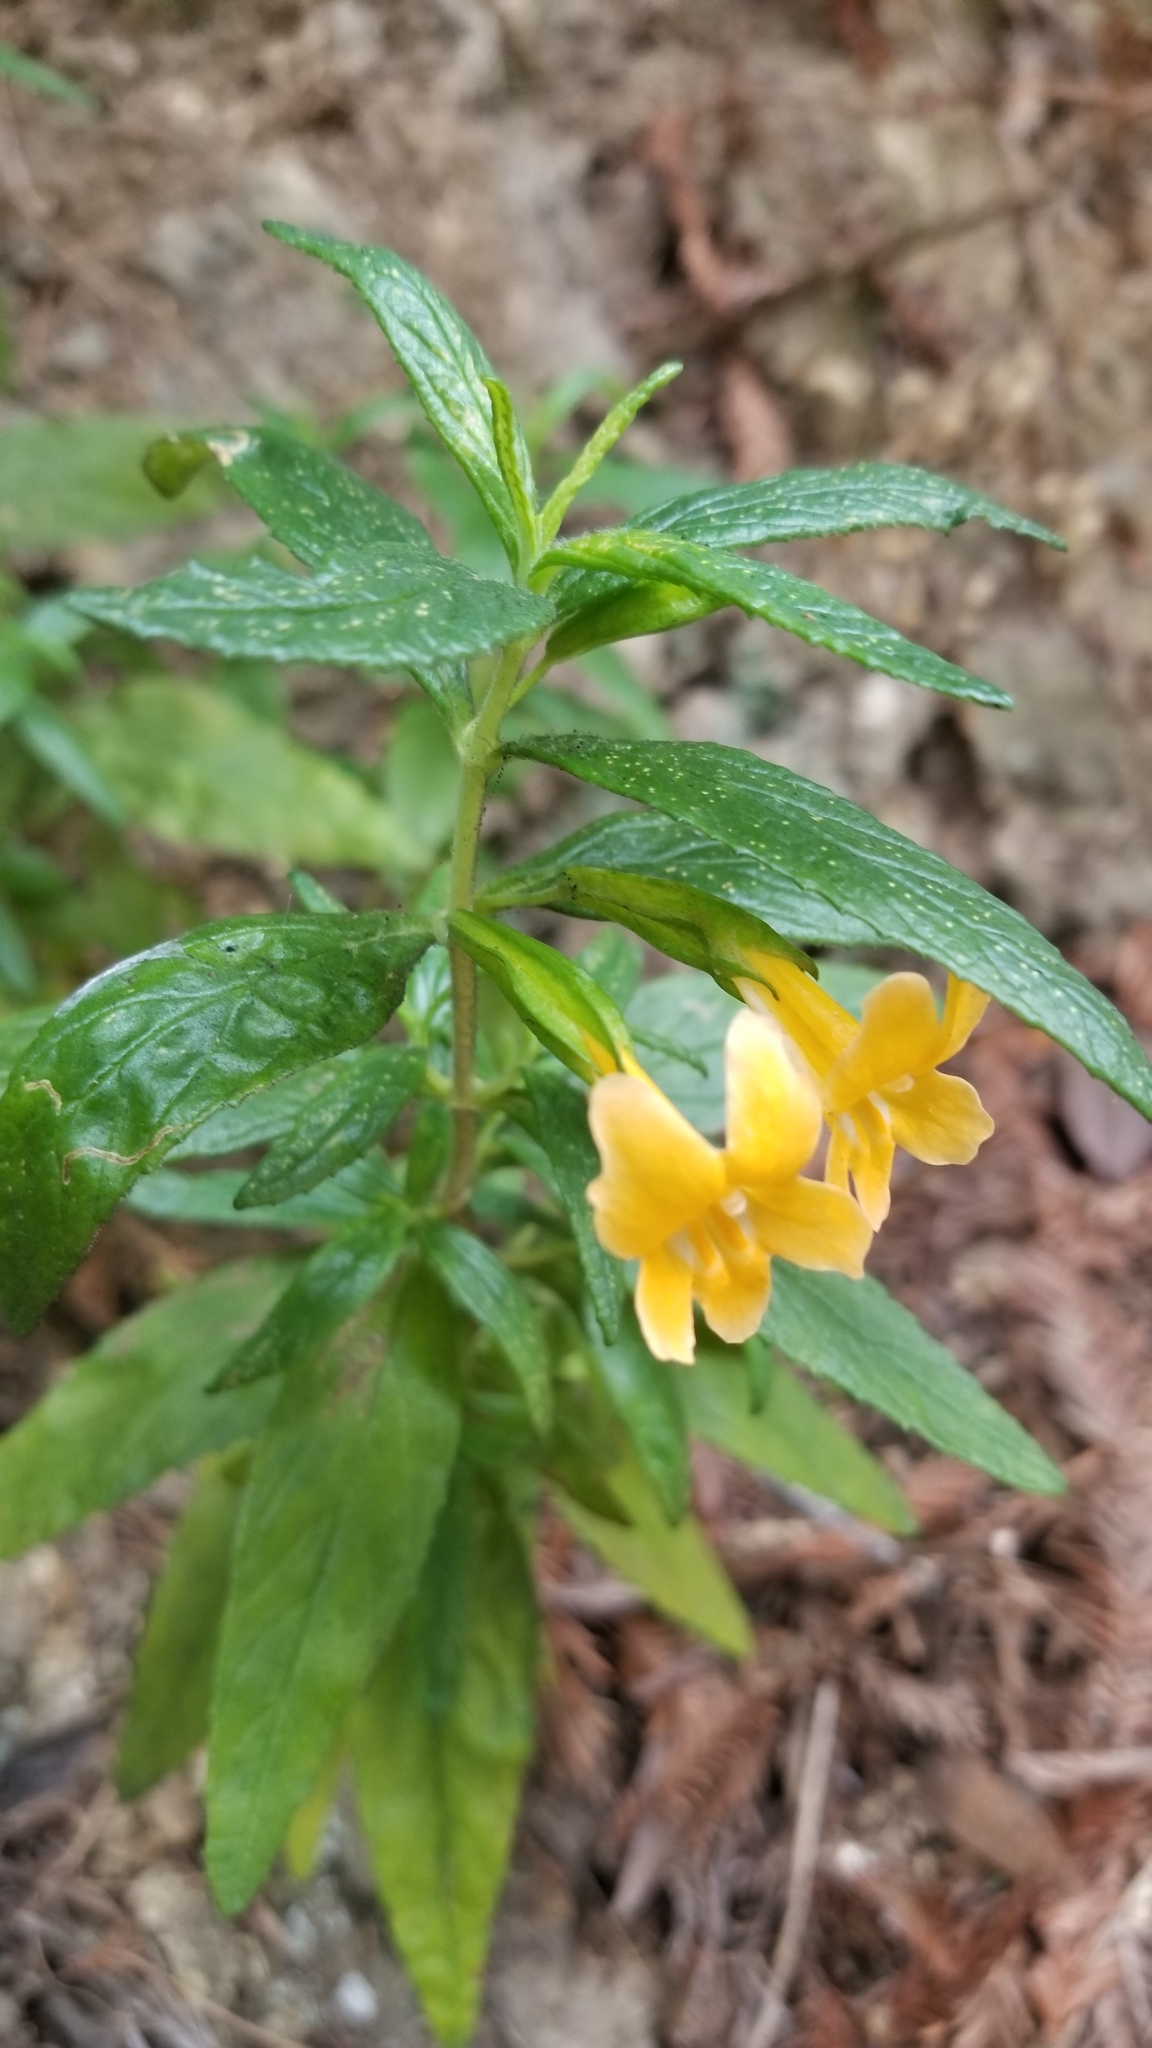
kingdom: Plantae
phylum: Tracheophyta
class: Magnoliopsida
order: Lamiales
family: Phrymaceae
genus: Diplacus
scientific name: Diplacus aurantiacus
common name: Bush monkey-flower
